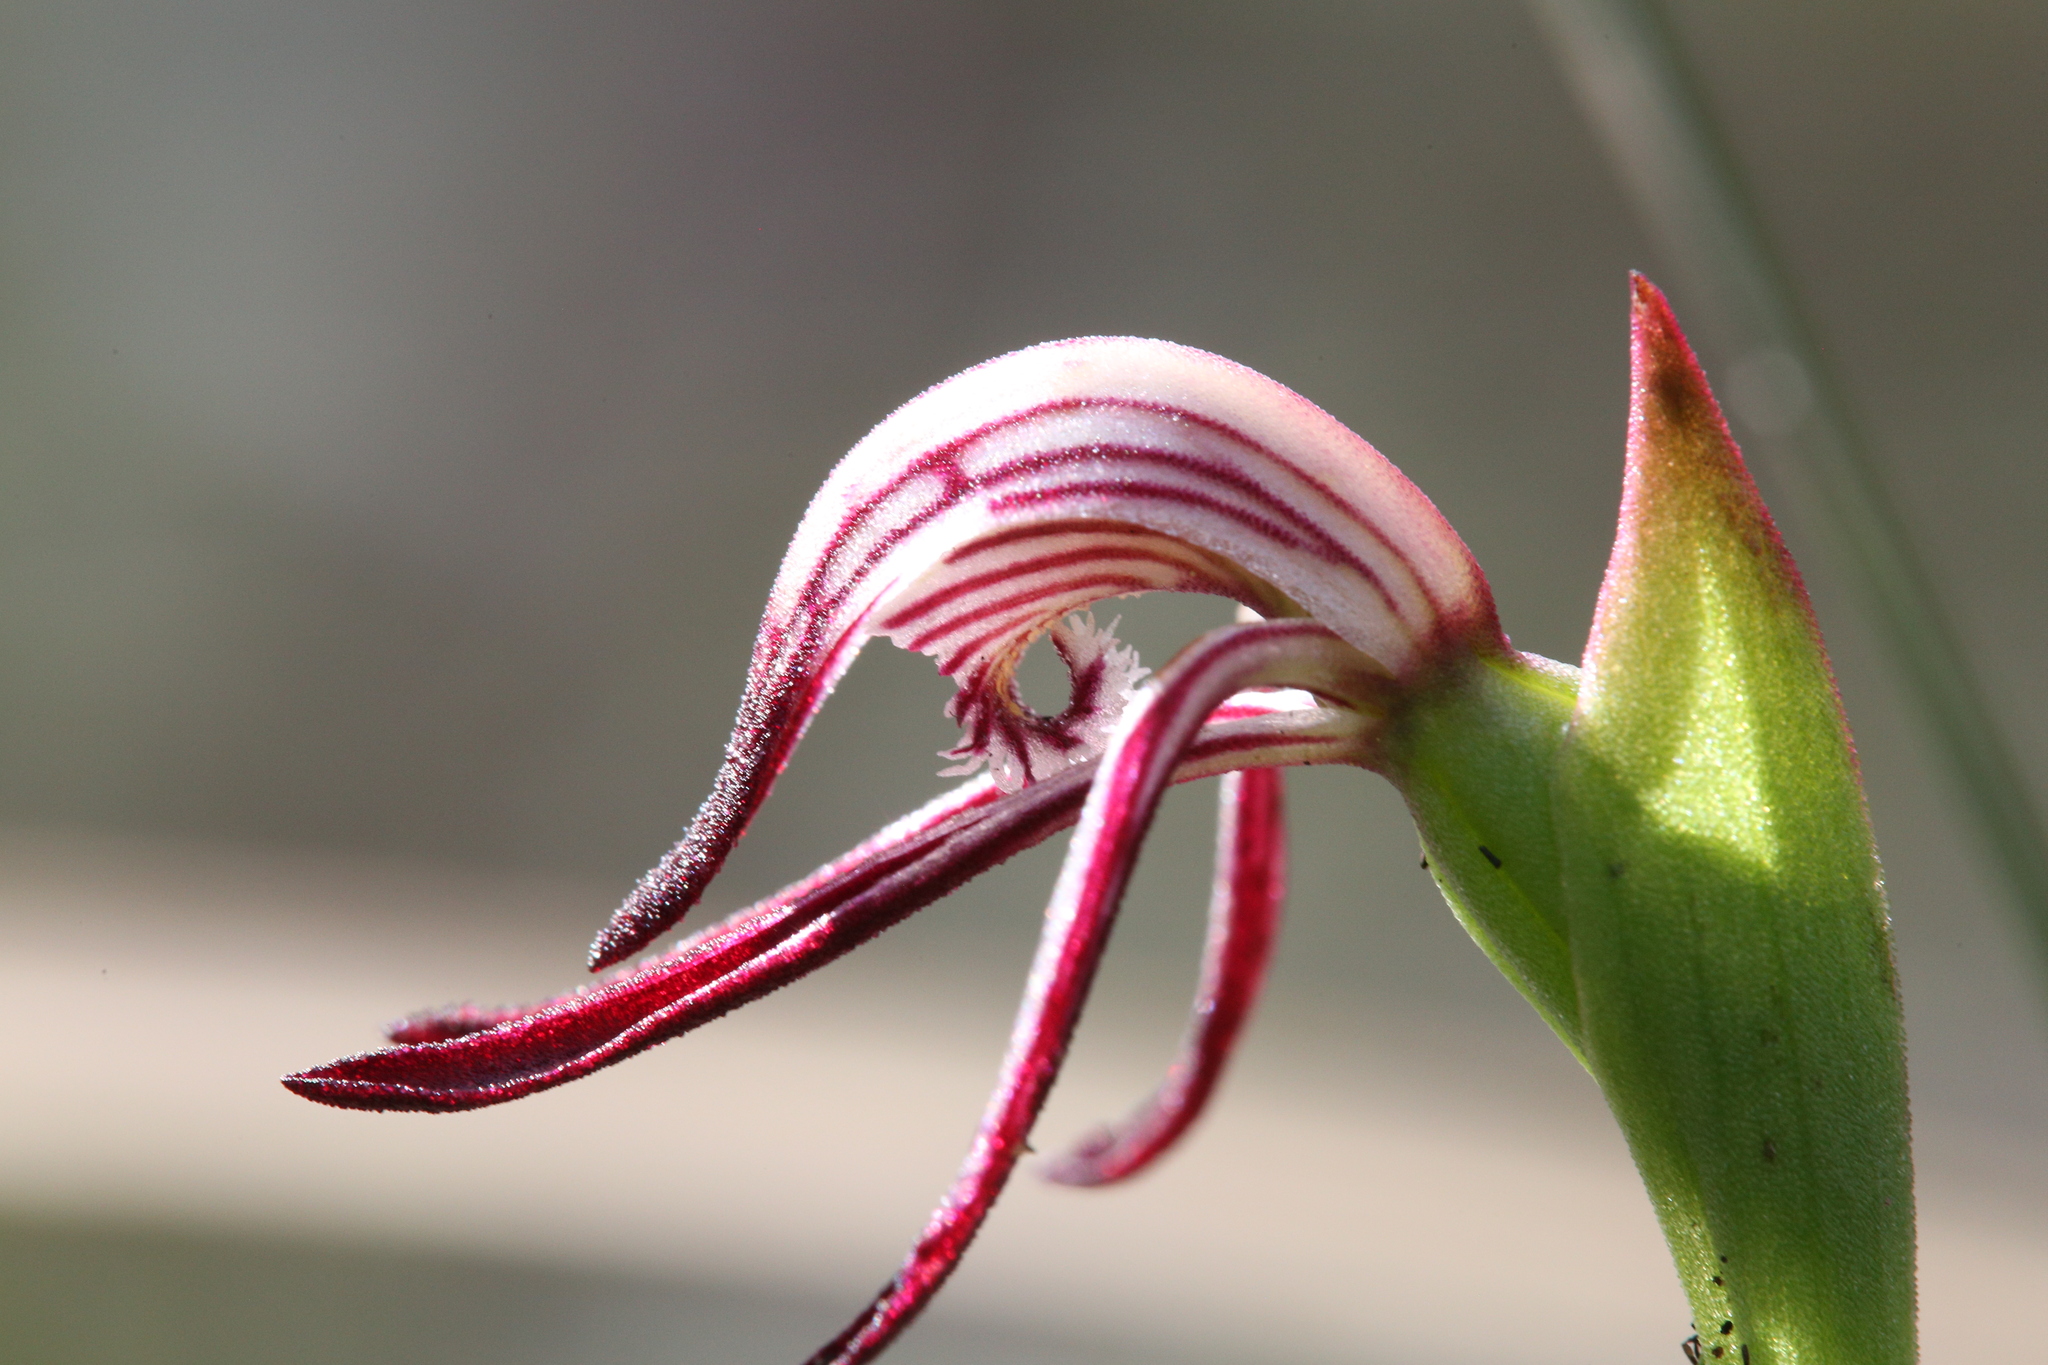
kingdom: Plantae
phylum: Tracheophyta
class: Liliopsida
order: Asparagales
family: Orchidaceae
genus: Pyrorchis
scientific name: Pyrorchis nigricans
